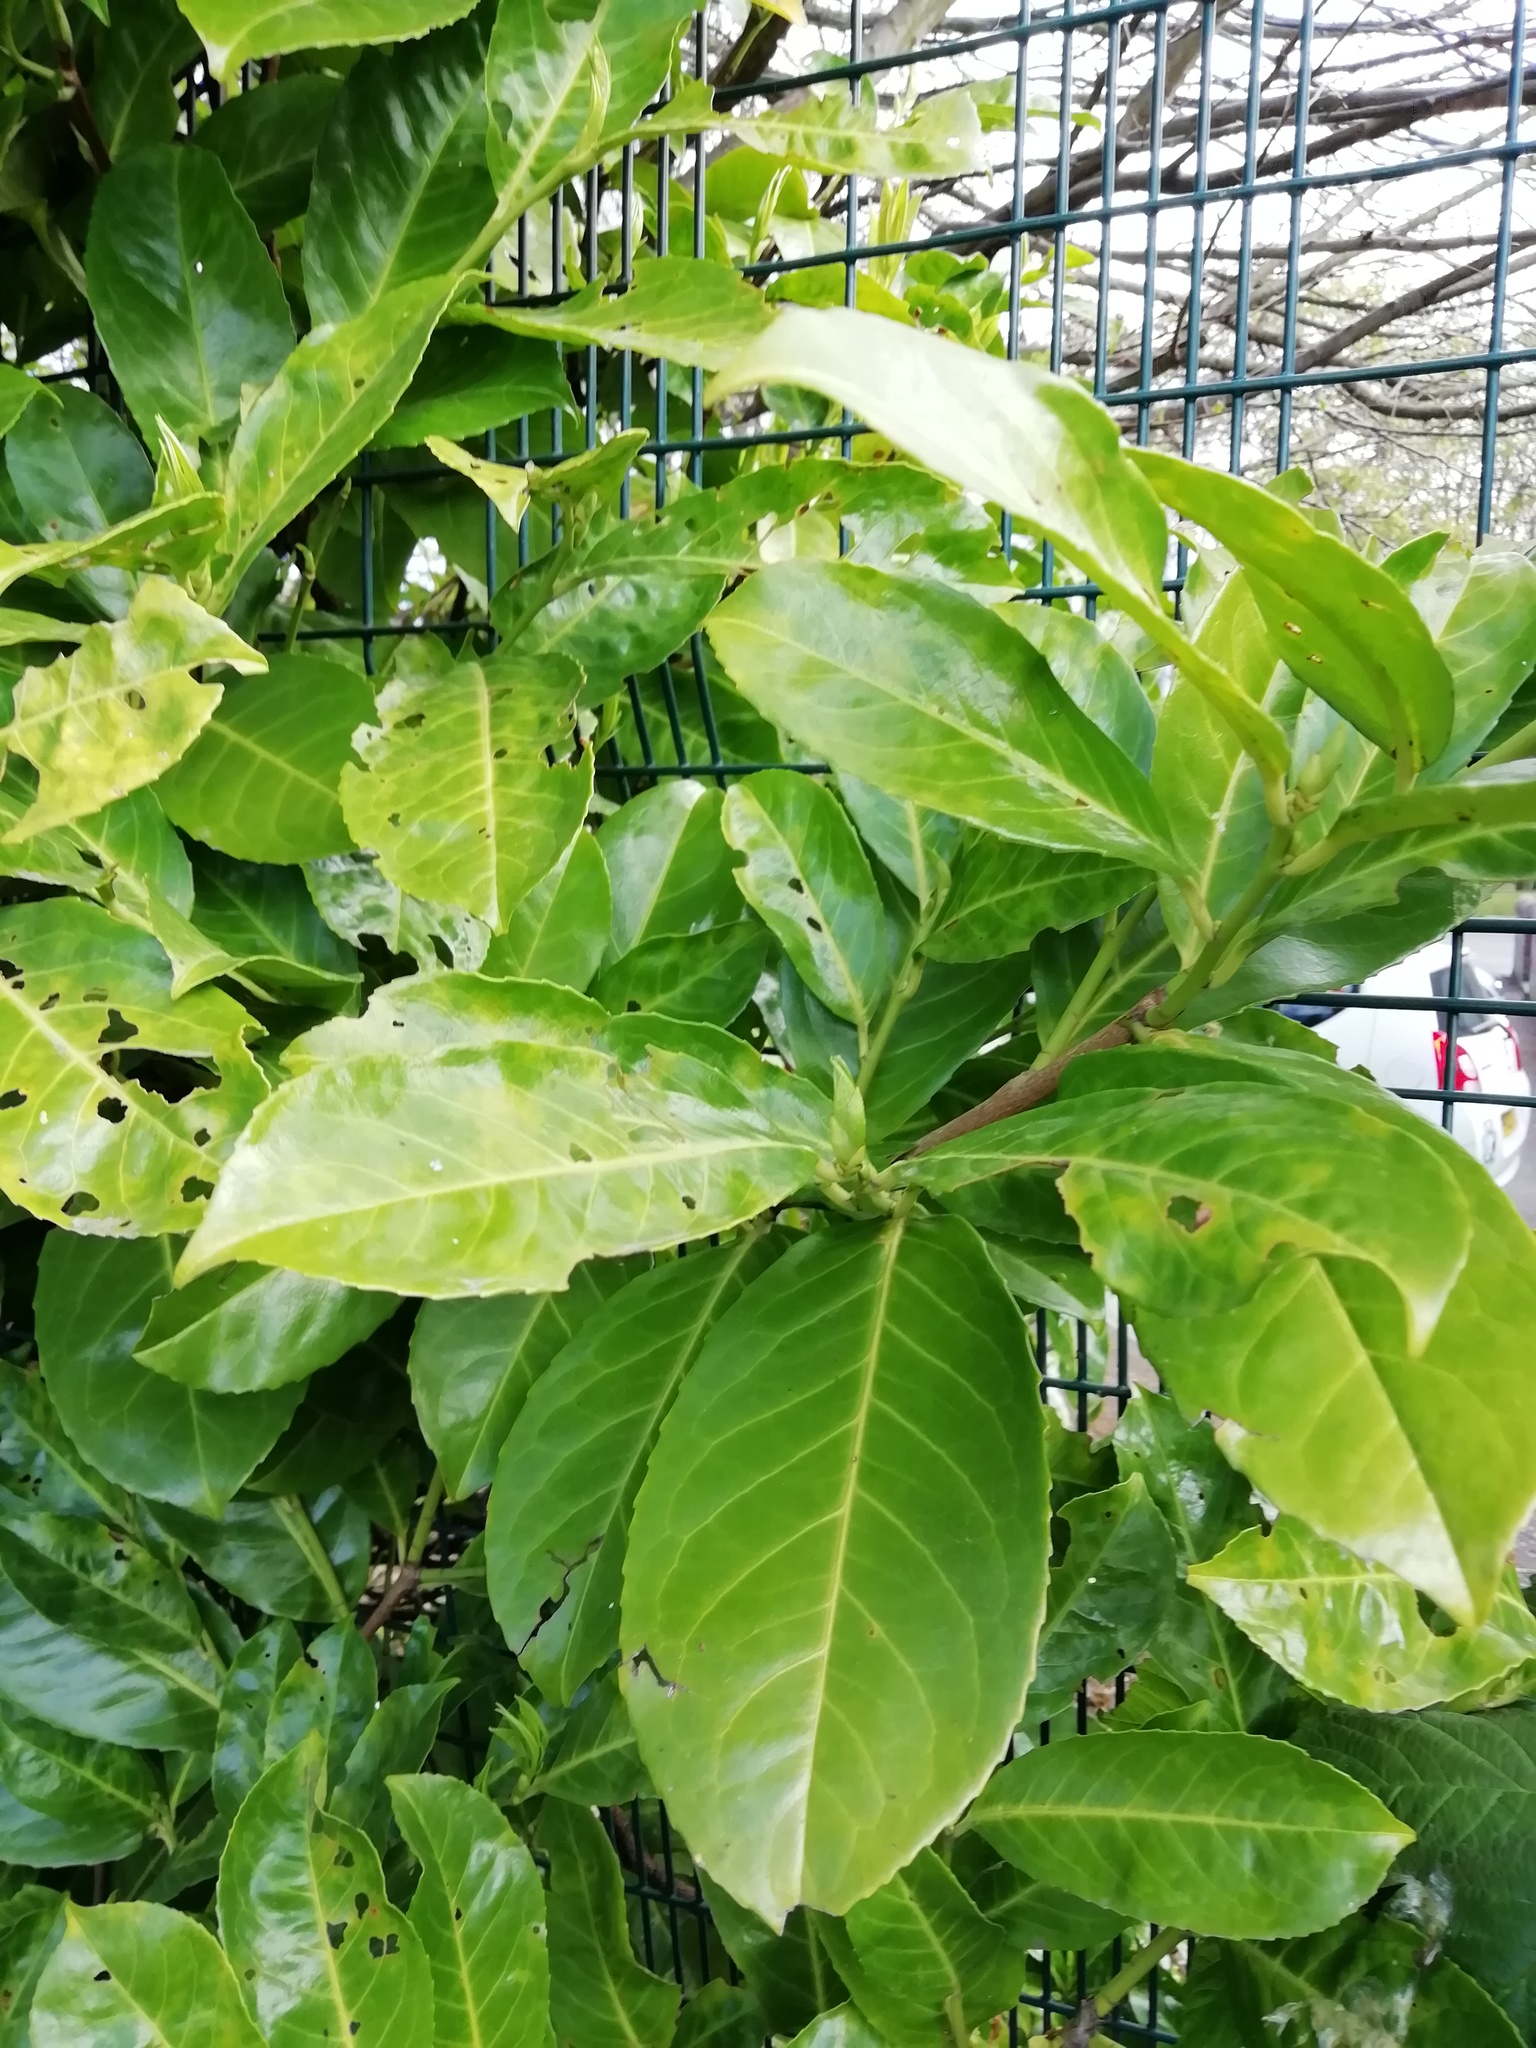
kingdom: Plantae
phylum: Tracheophyta
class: Magnoliopsida
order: Rosales
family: Rosaceae
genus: Prunus
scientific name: Prunus laurocerasus
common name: Cherry laurel
